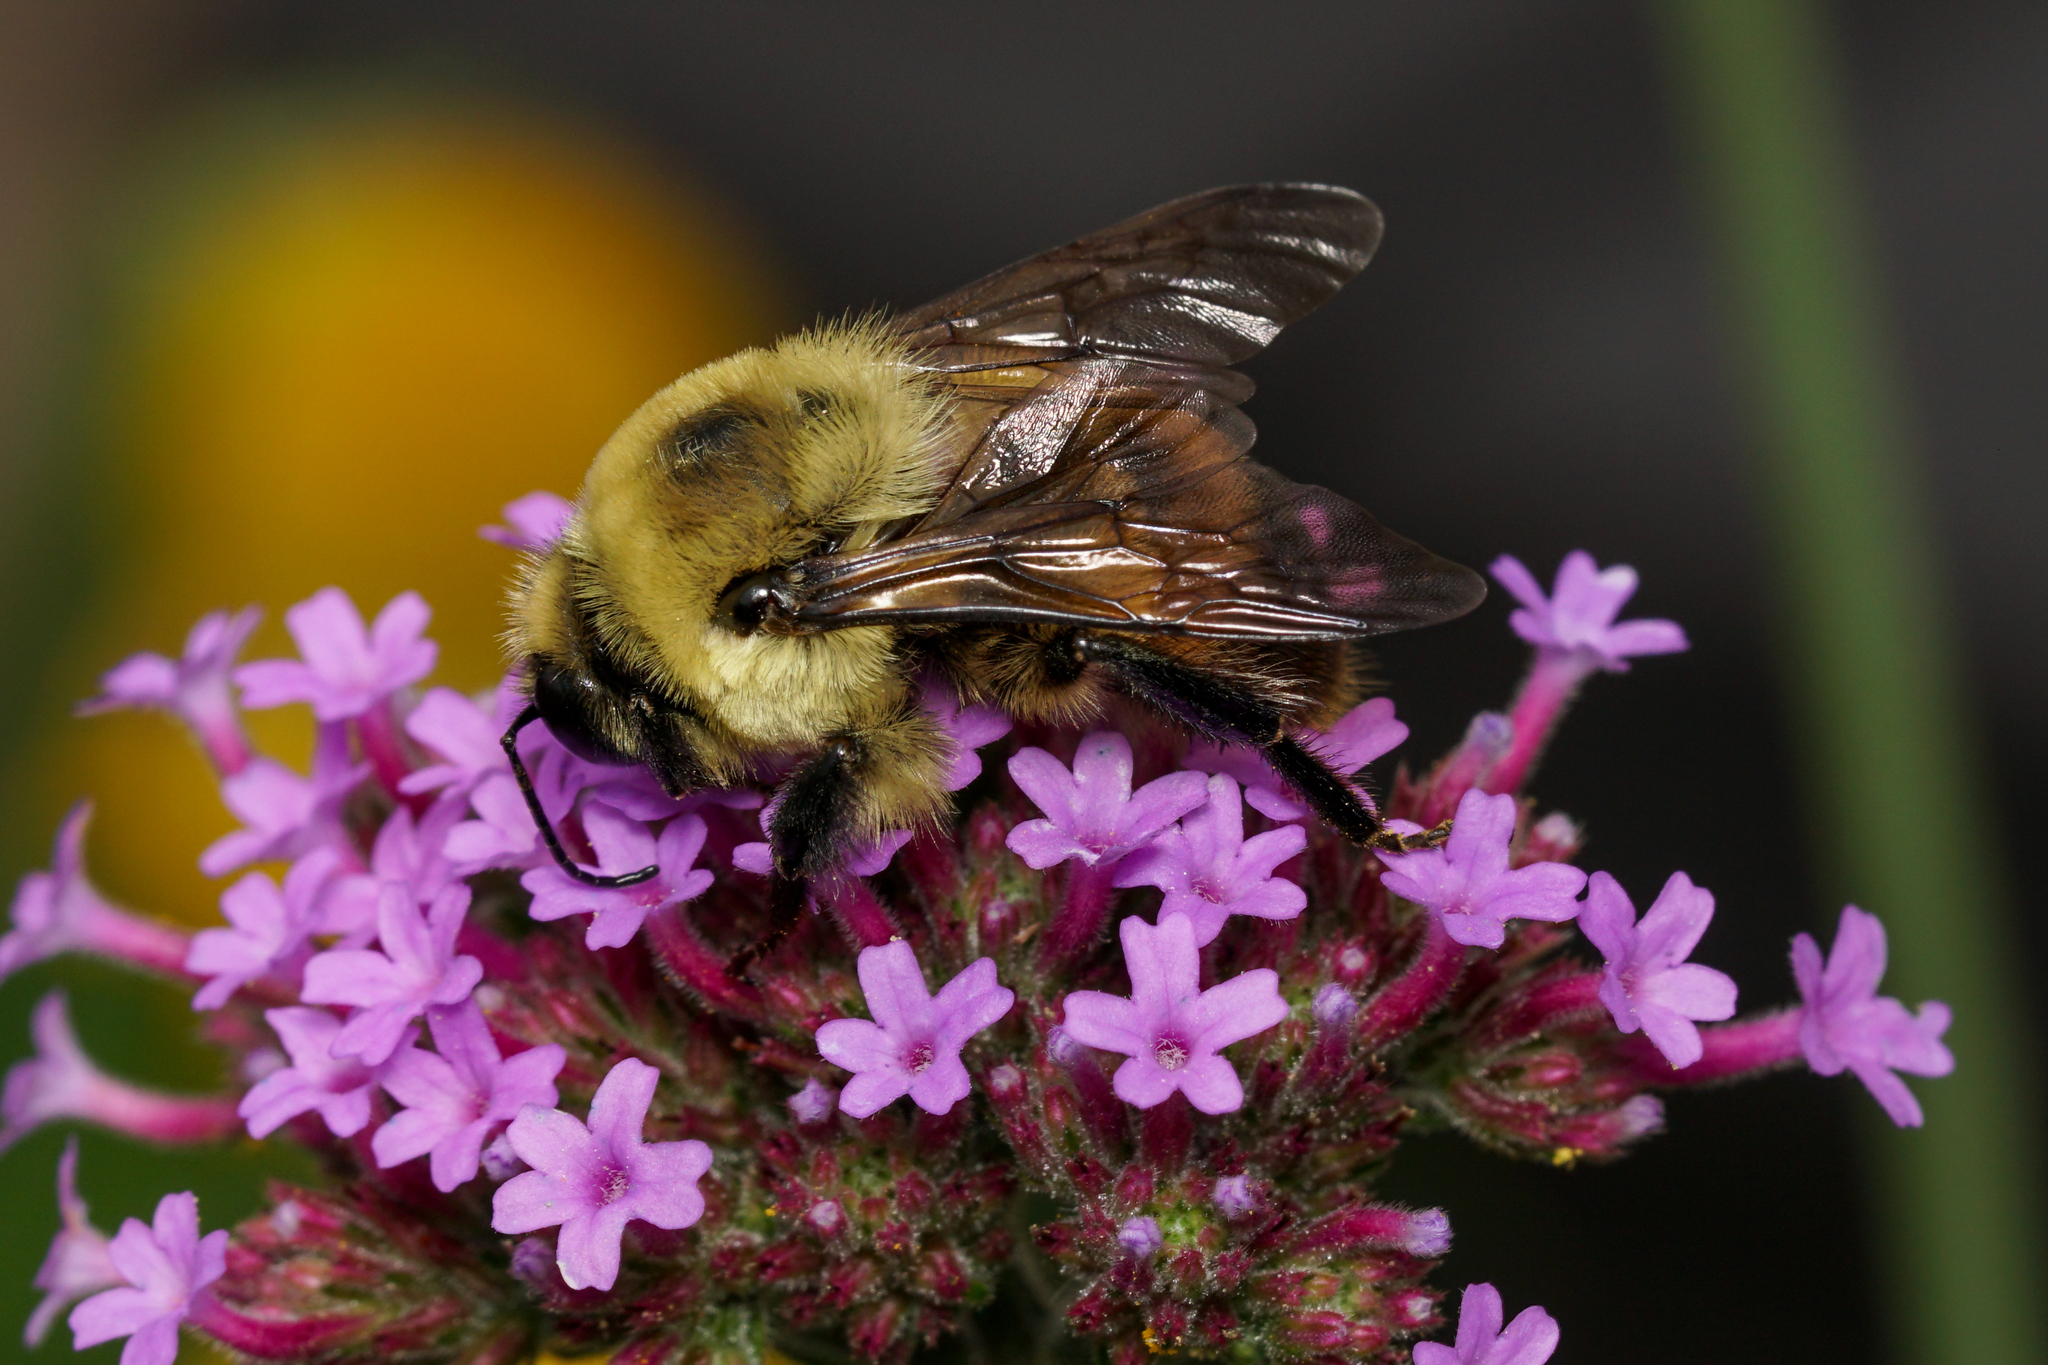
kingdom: Animalia
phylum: Arthropoda
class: Insecta
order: Hymenoptera
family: Apidae
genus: Bombus
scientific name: Bombus griseocollis
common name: Brown-belted bumble bee
